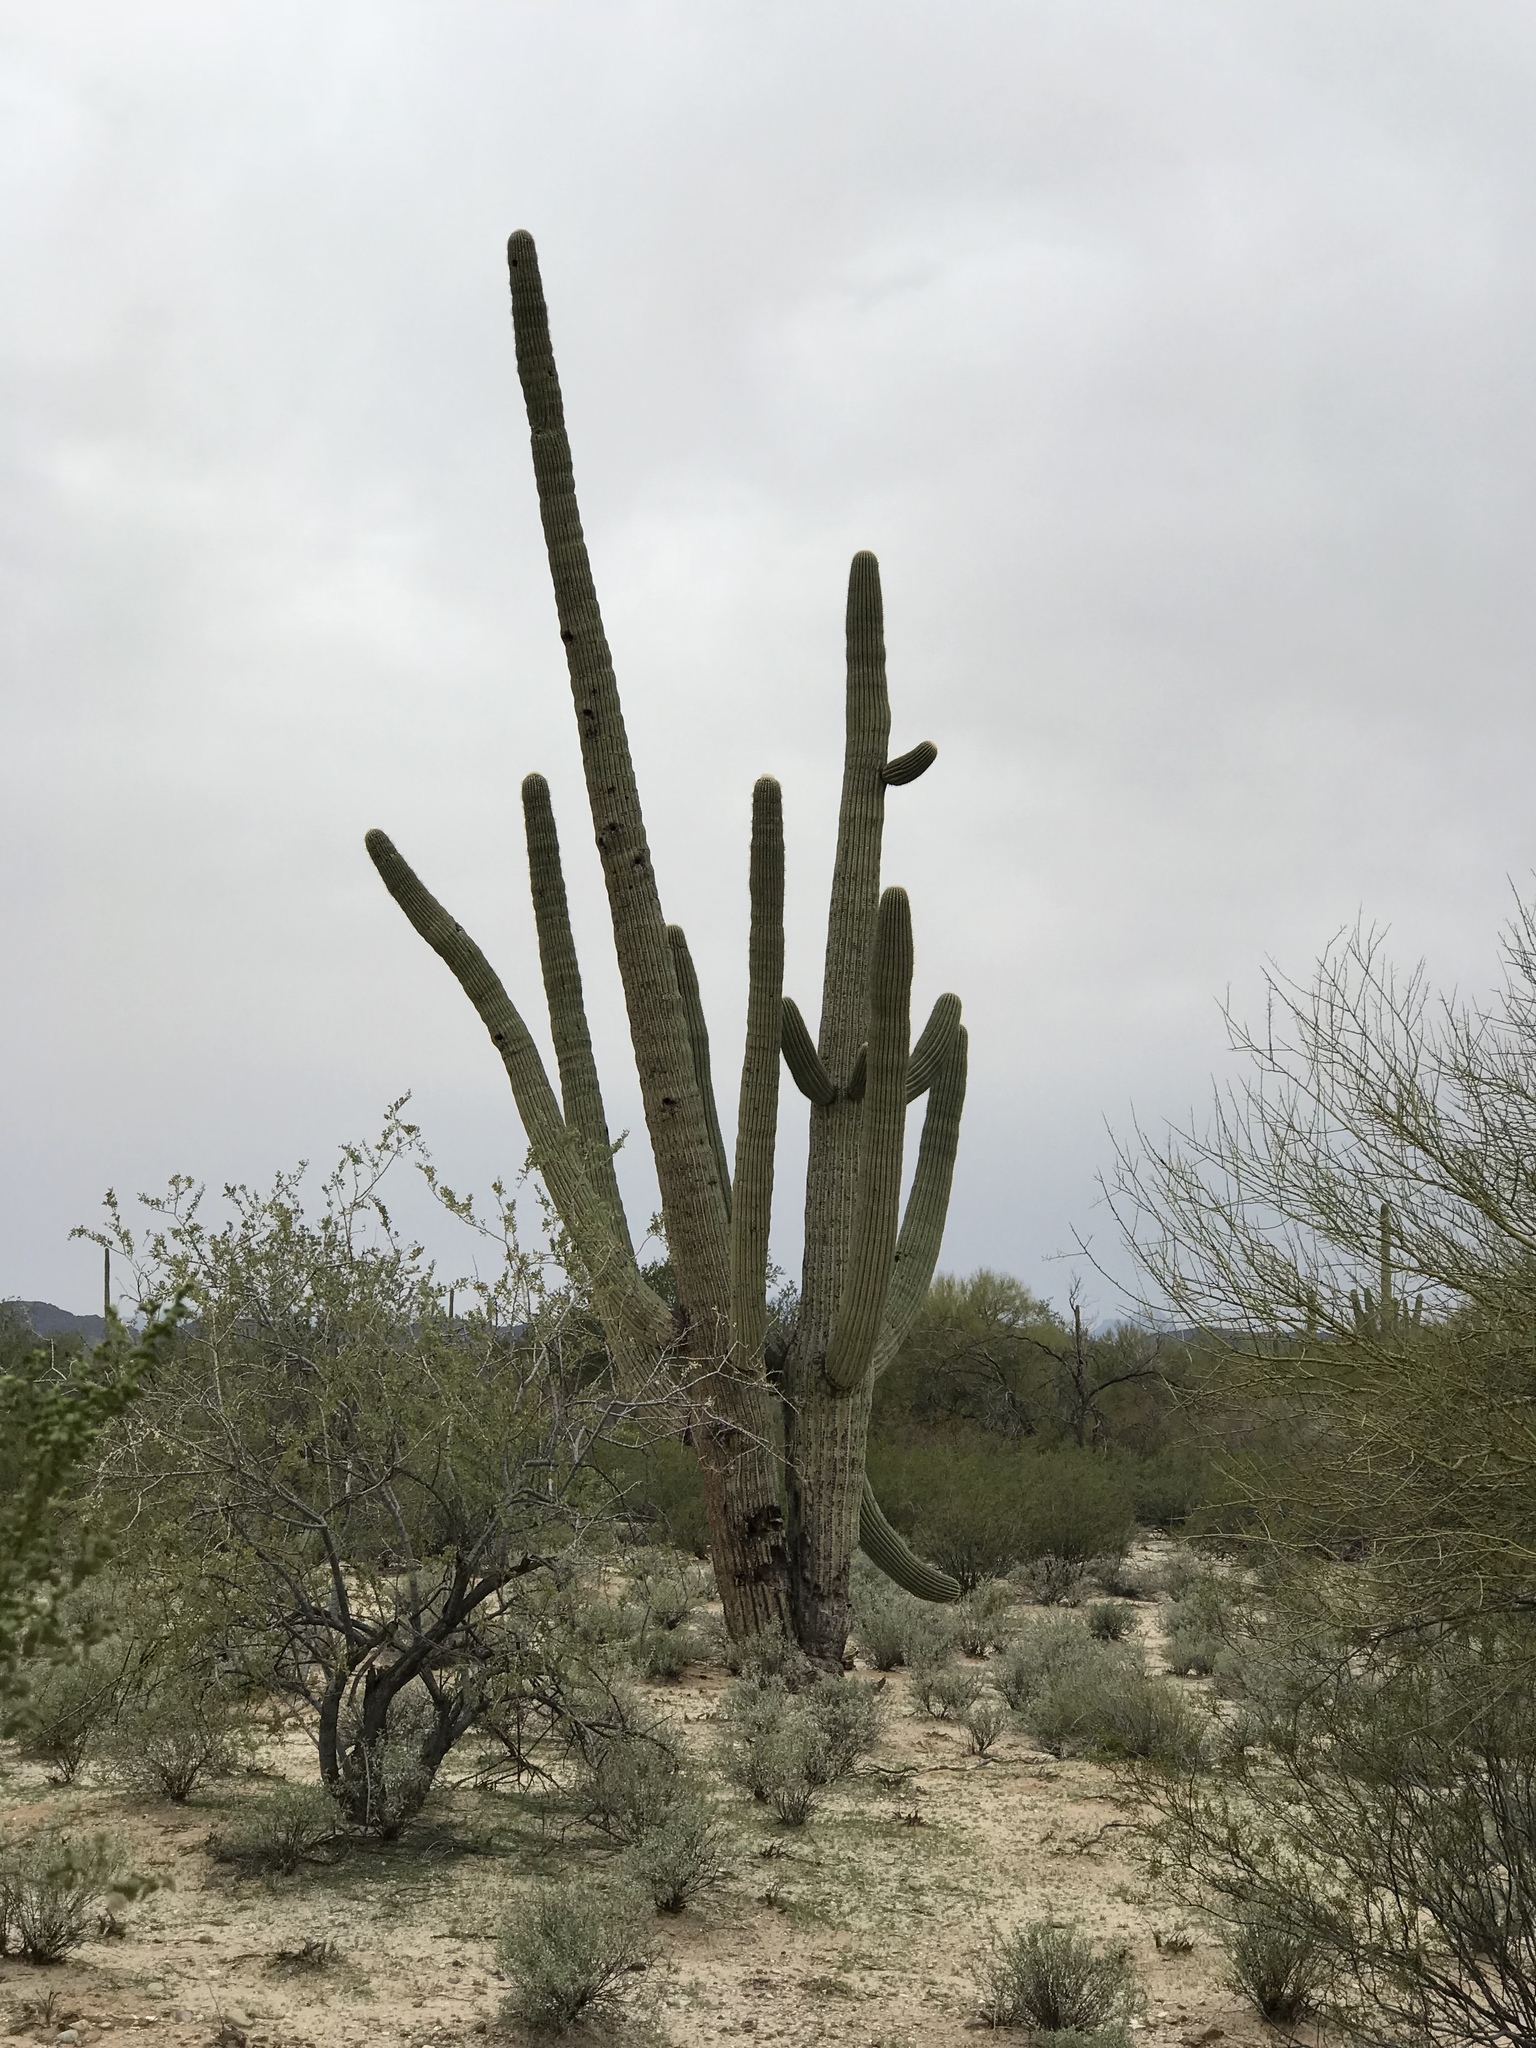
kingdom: Plantae
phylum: Tracheophyta
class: Magnoliopsida
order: Caryophyllales
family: Cactaceae
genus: Carnegiea
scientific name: Carnegiea gigantea
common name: Saguaro
